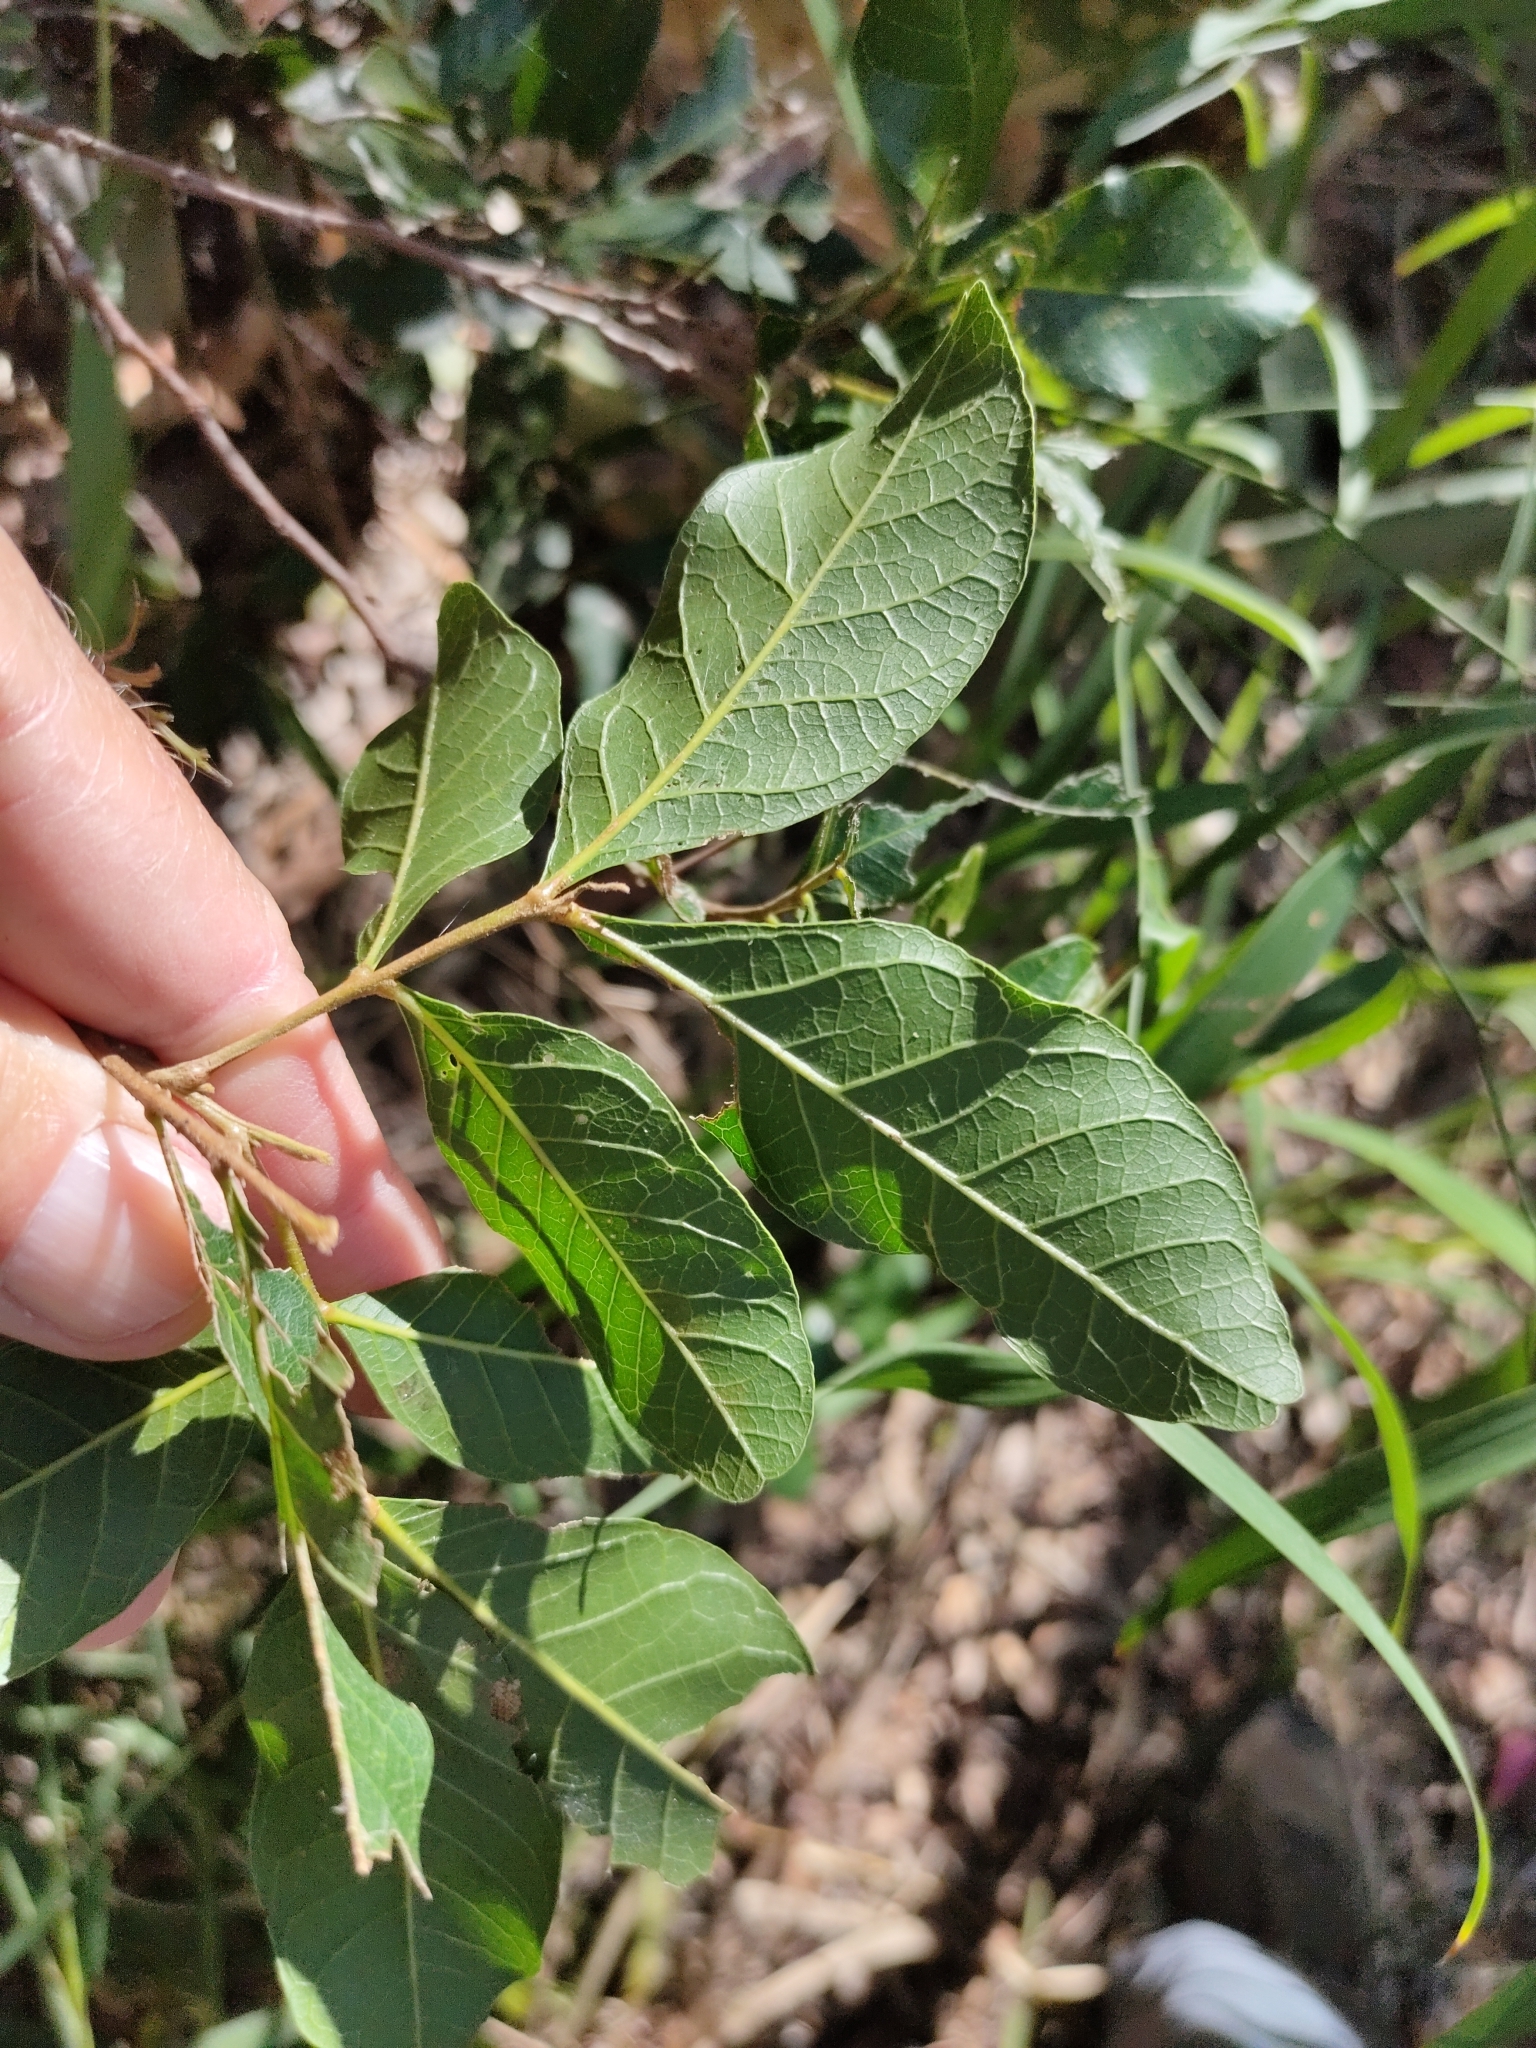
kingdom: Plantae
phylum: Tracheophyta
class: Magnoliopsida
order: Sapindales
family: Sapindaceae
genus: Alectryon
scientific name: Alectryon connatus
